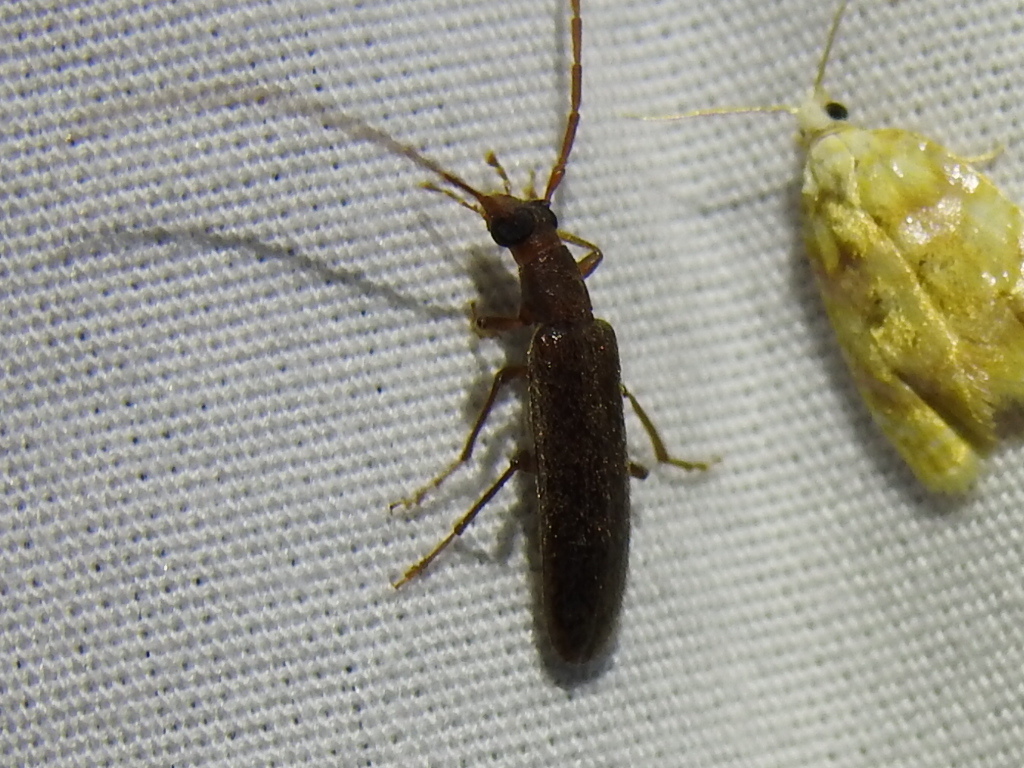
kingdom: Animalia
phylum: Arthropoda
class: Insecta
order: Coleoptera
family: Oedemeridae
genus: Sparedrus
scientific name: Sparedrus aspersus
